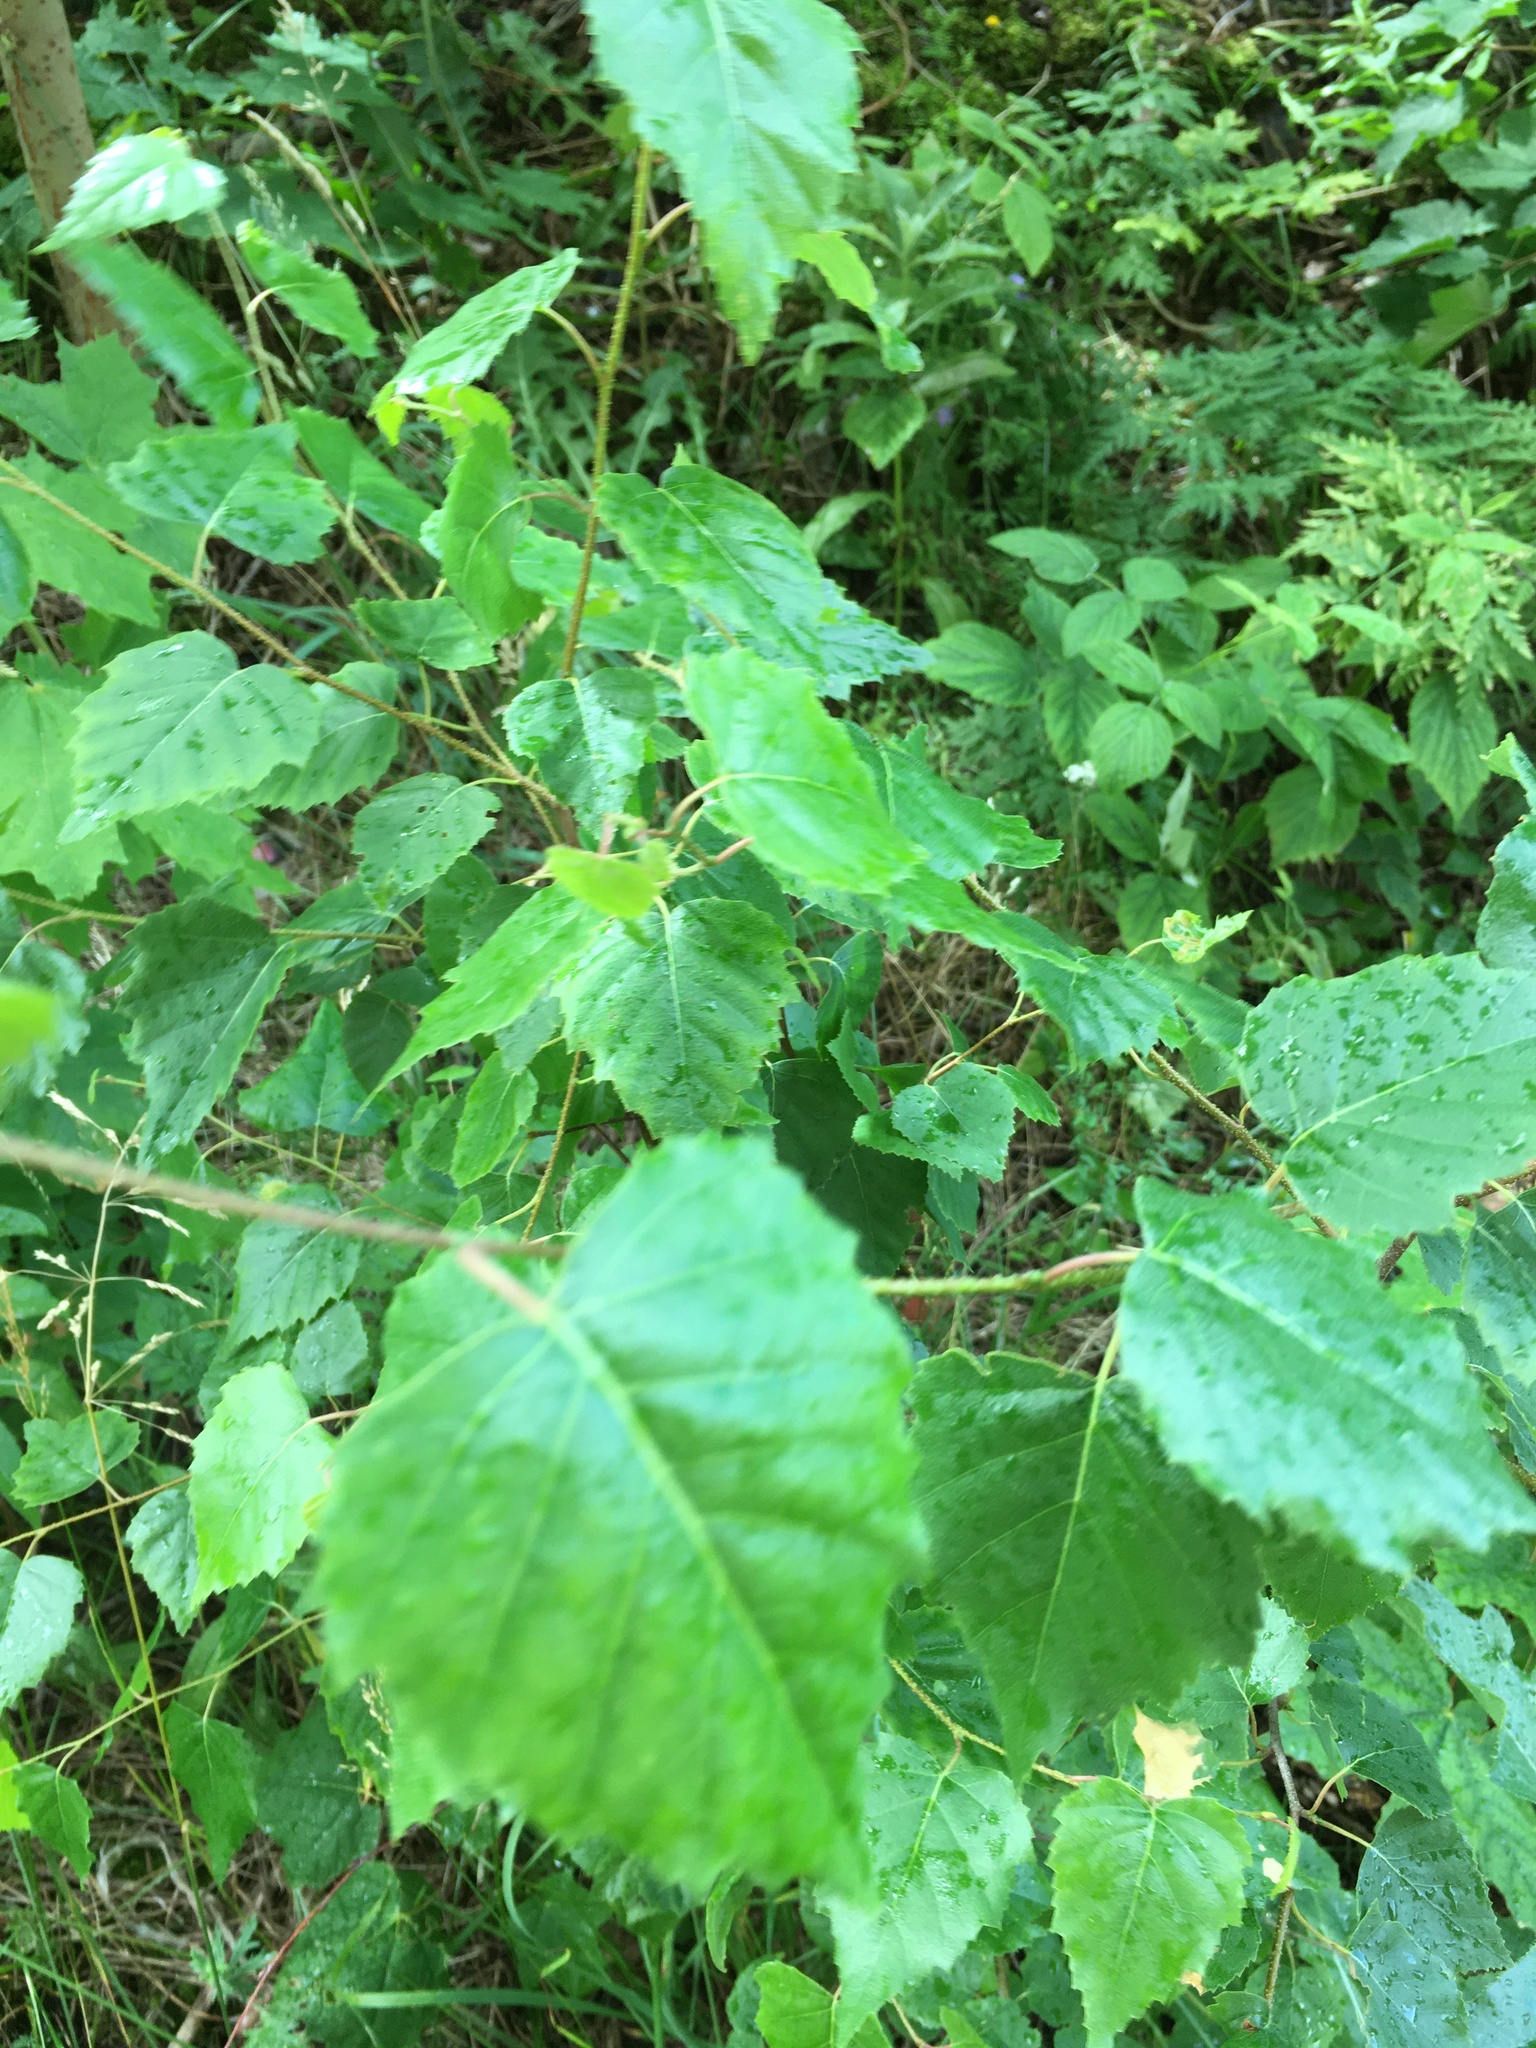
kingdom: Plantae
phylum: Tracheophyta
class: Magnoliopsida
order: Fagales
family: Betulaceae
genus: Betula
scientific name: Betula pendula
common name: Silver birch
